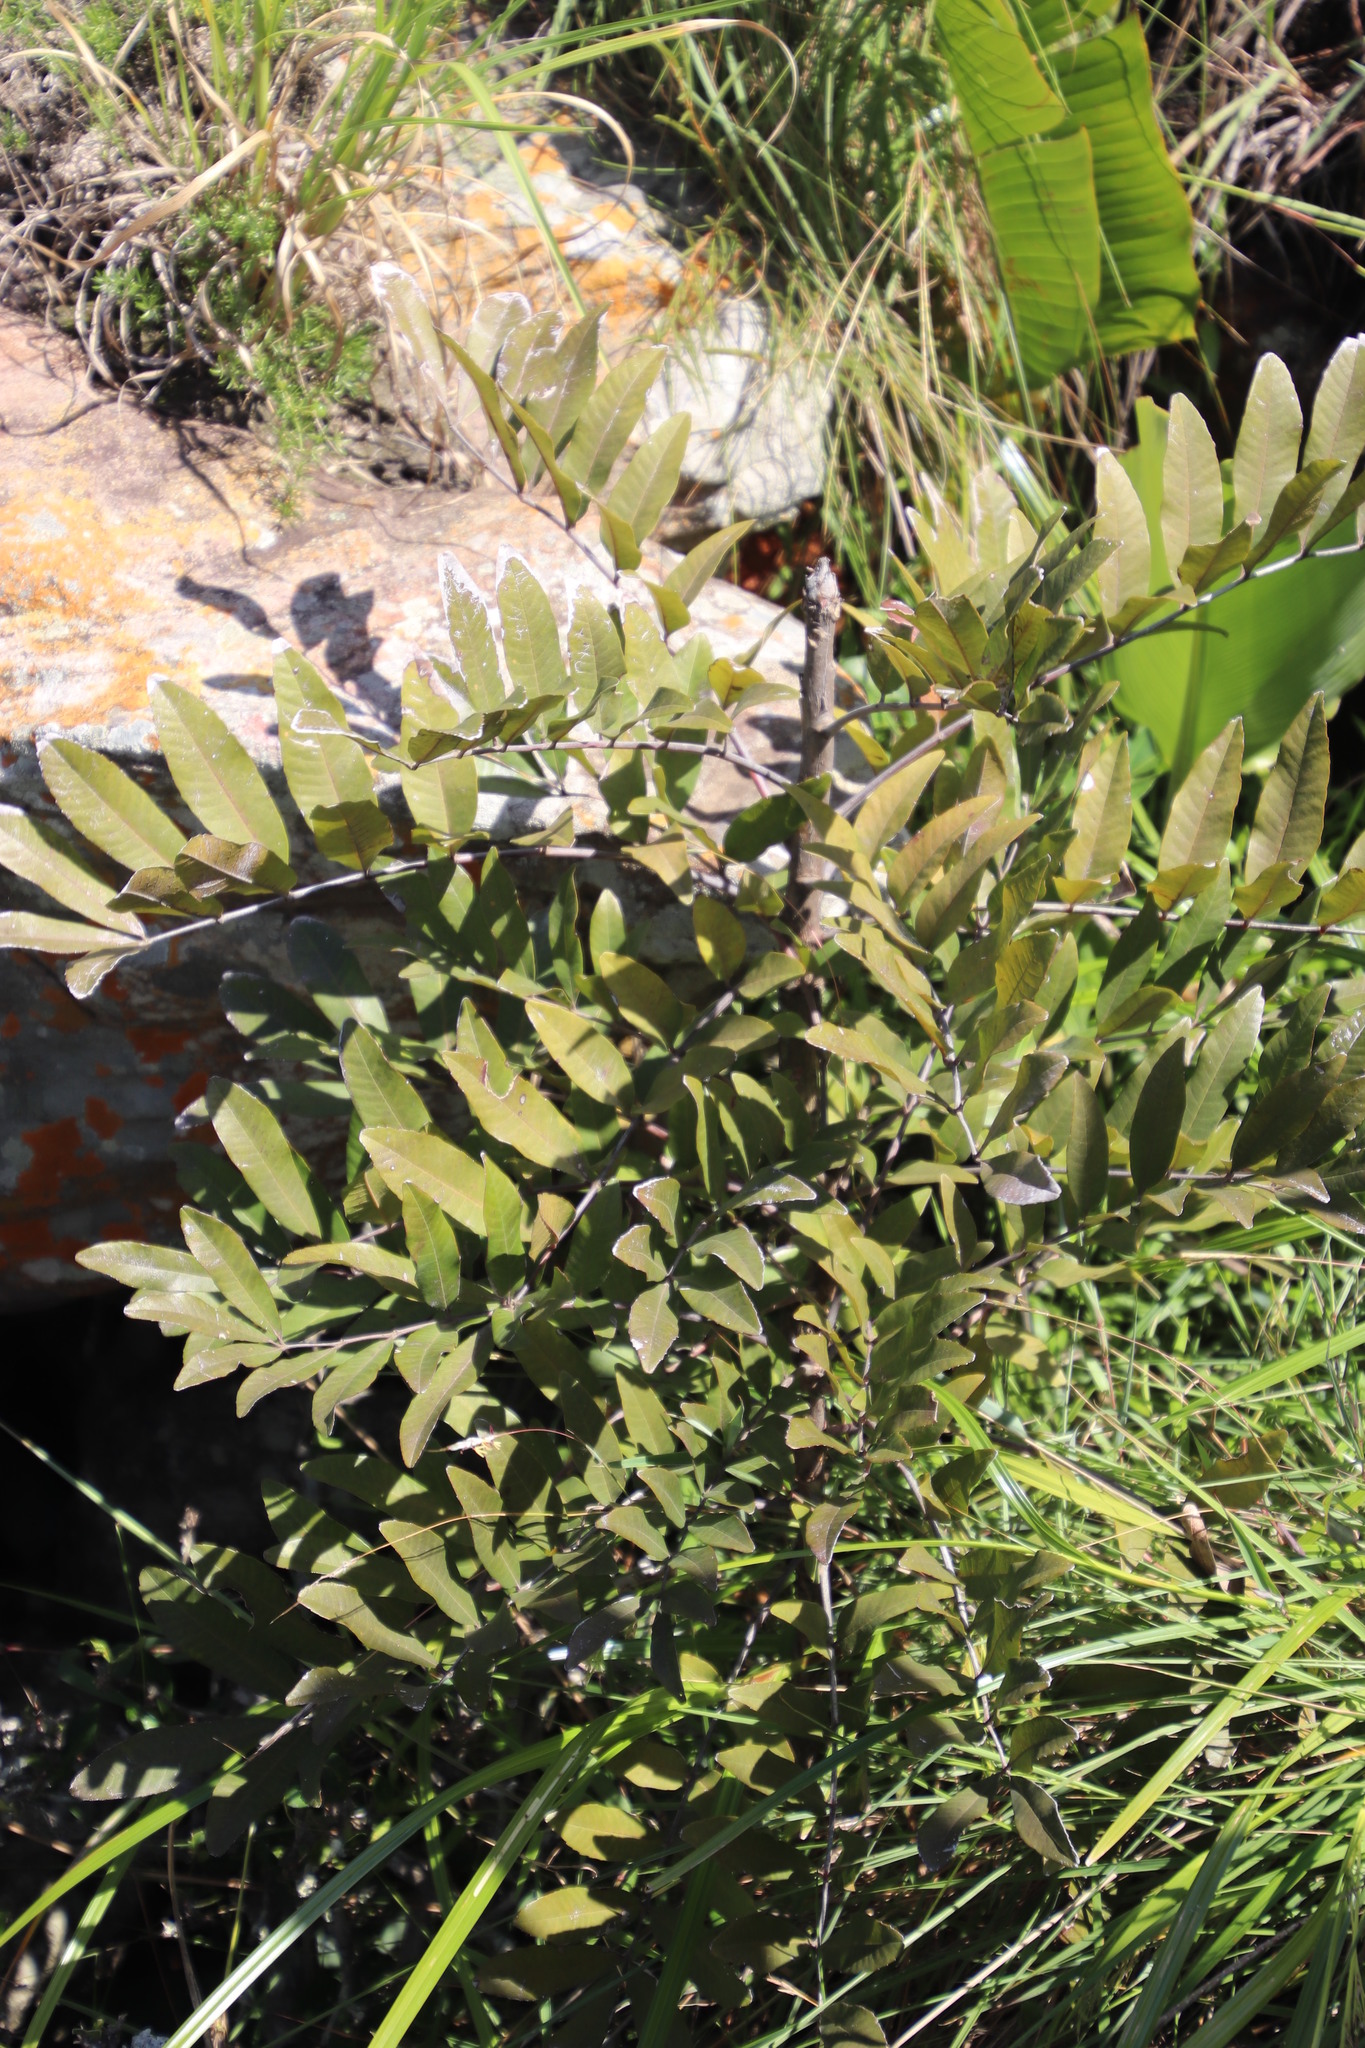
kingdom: Plantae
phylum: Tracheophyta
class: Magnoliopsida
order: Sapindales
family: Sapindaceae
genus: Deinbollia
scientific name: Deinbollia oblongifolia
